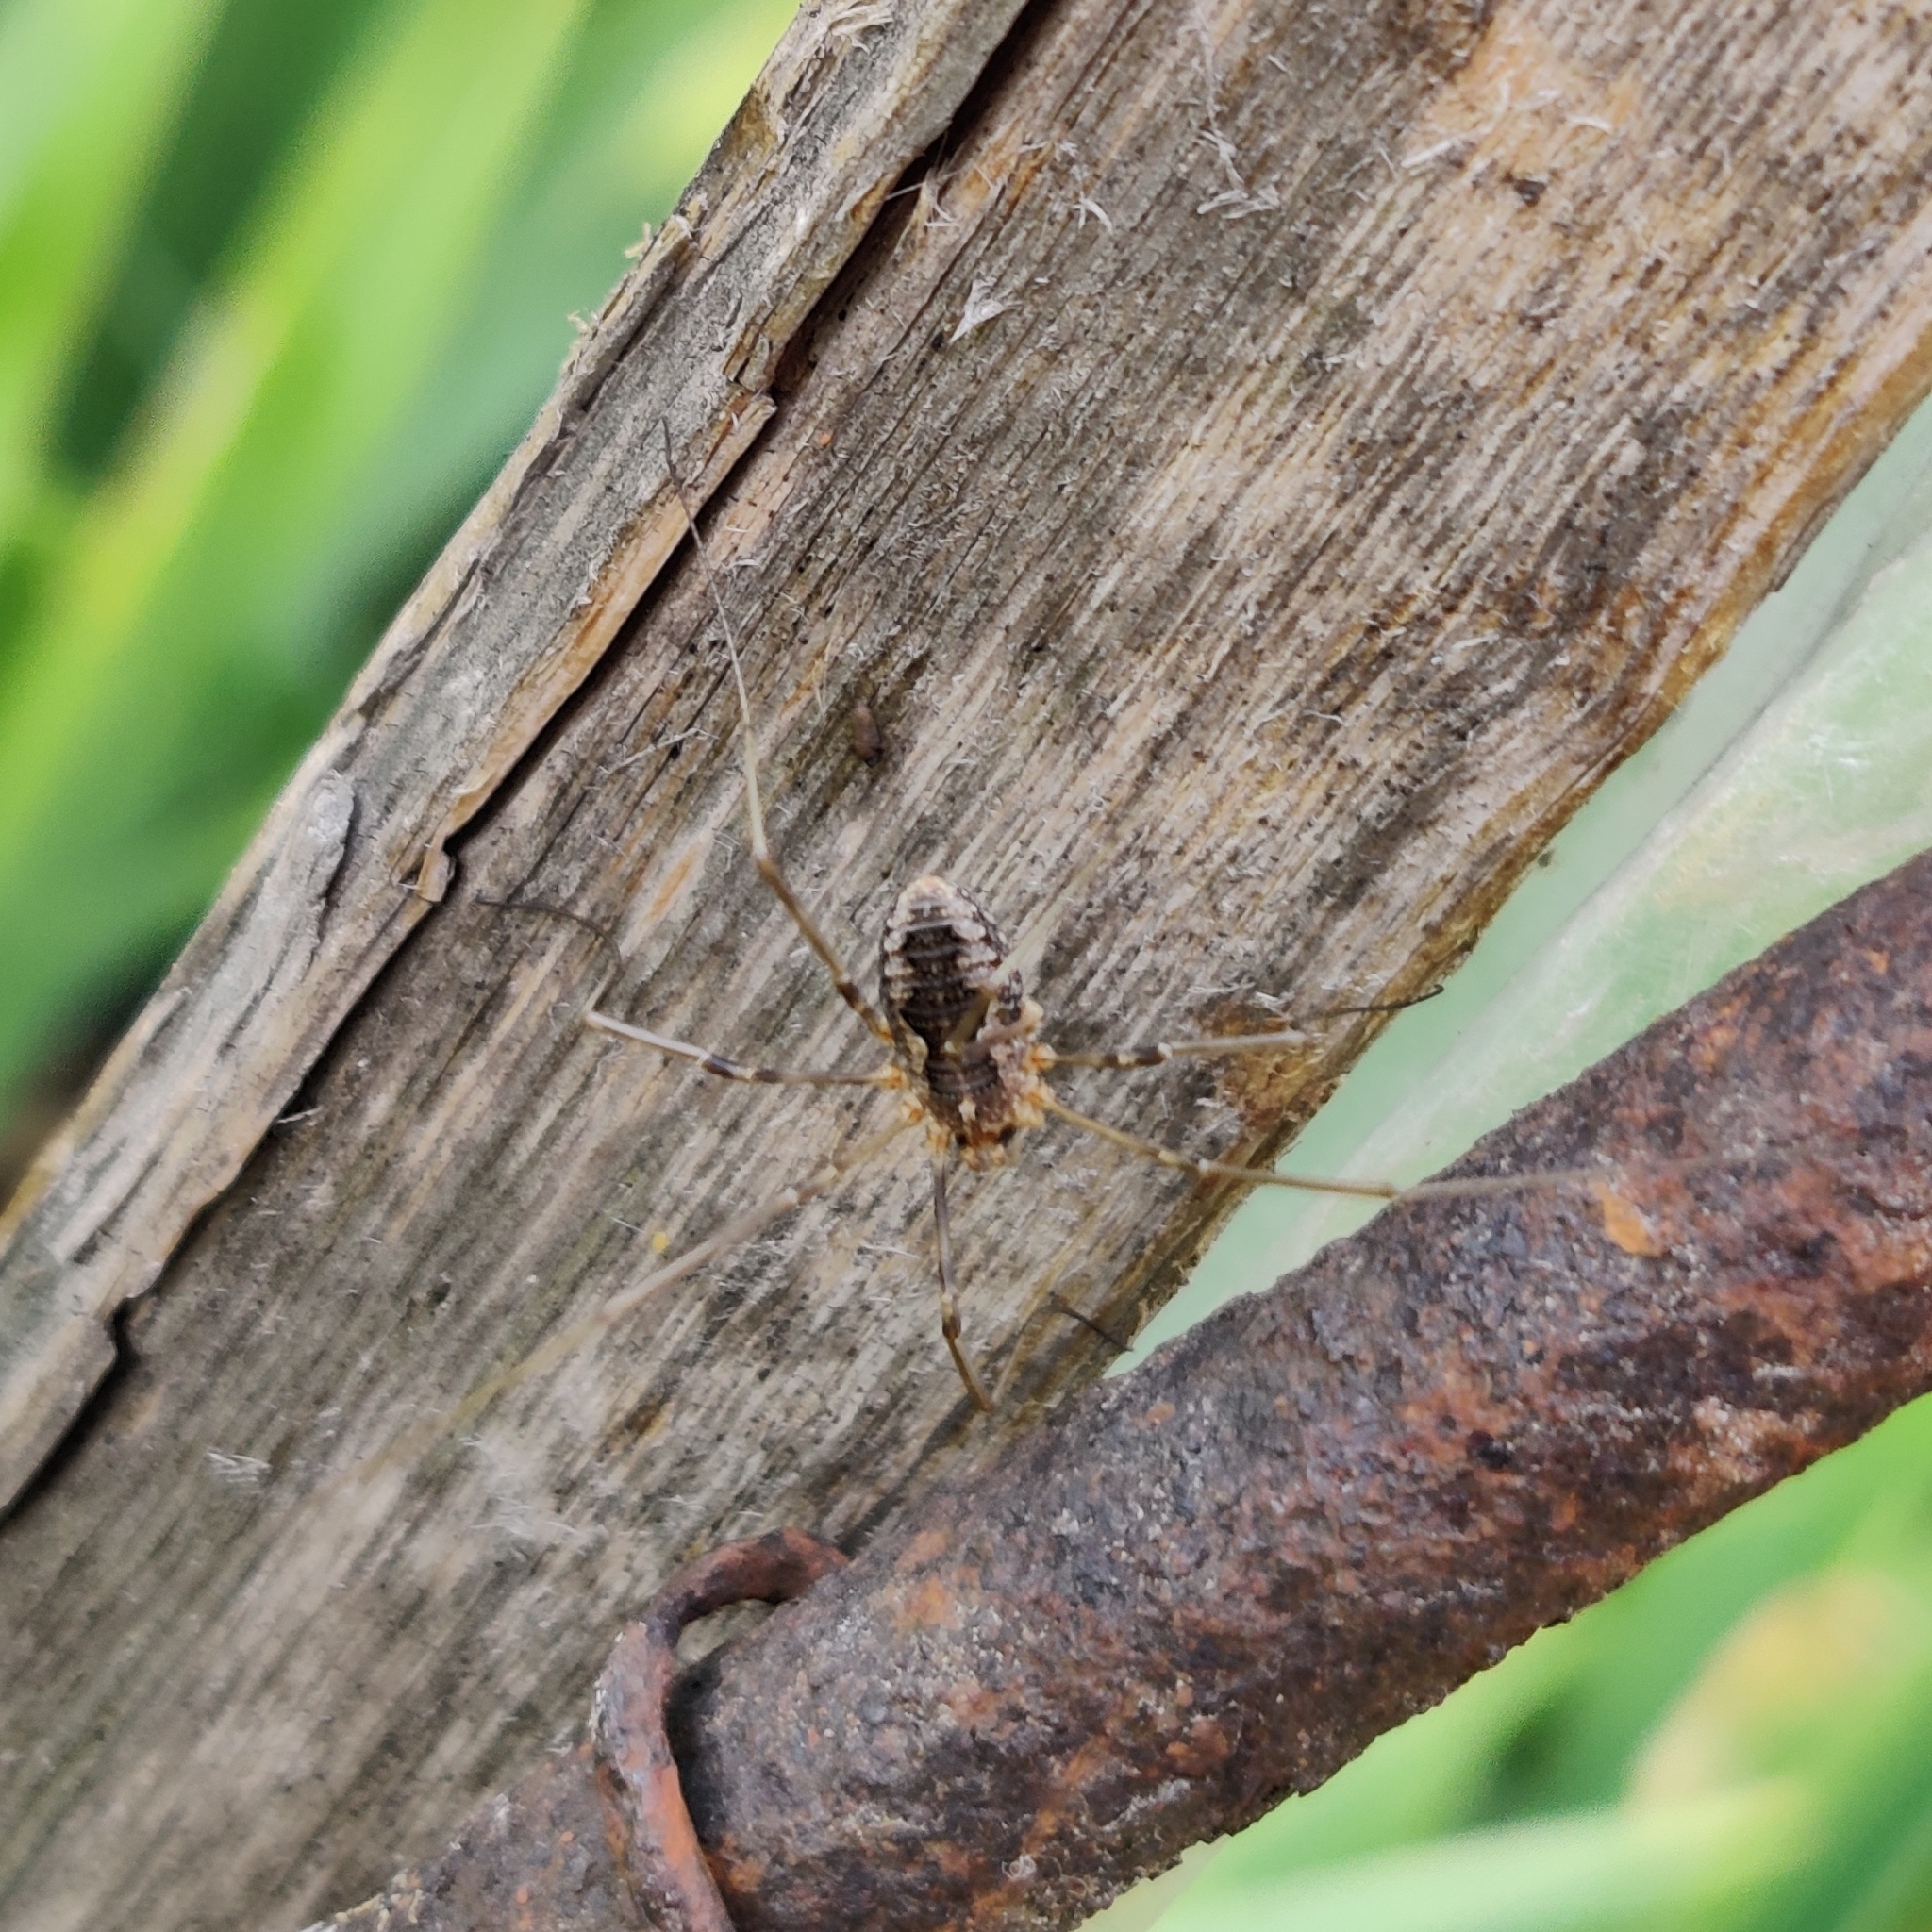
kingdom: Animalia
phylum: Arthropoda
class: Arachnida
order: Opiliones
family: Phalangiidae
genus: Phalangium
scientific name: Phalangium opilio
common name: Daddy longleg
